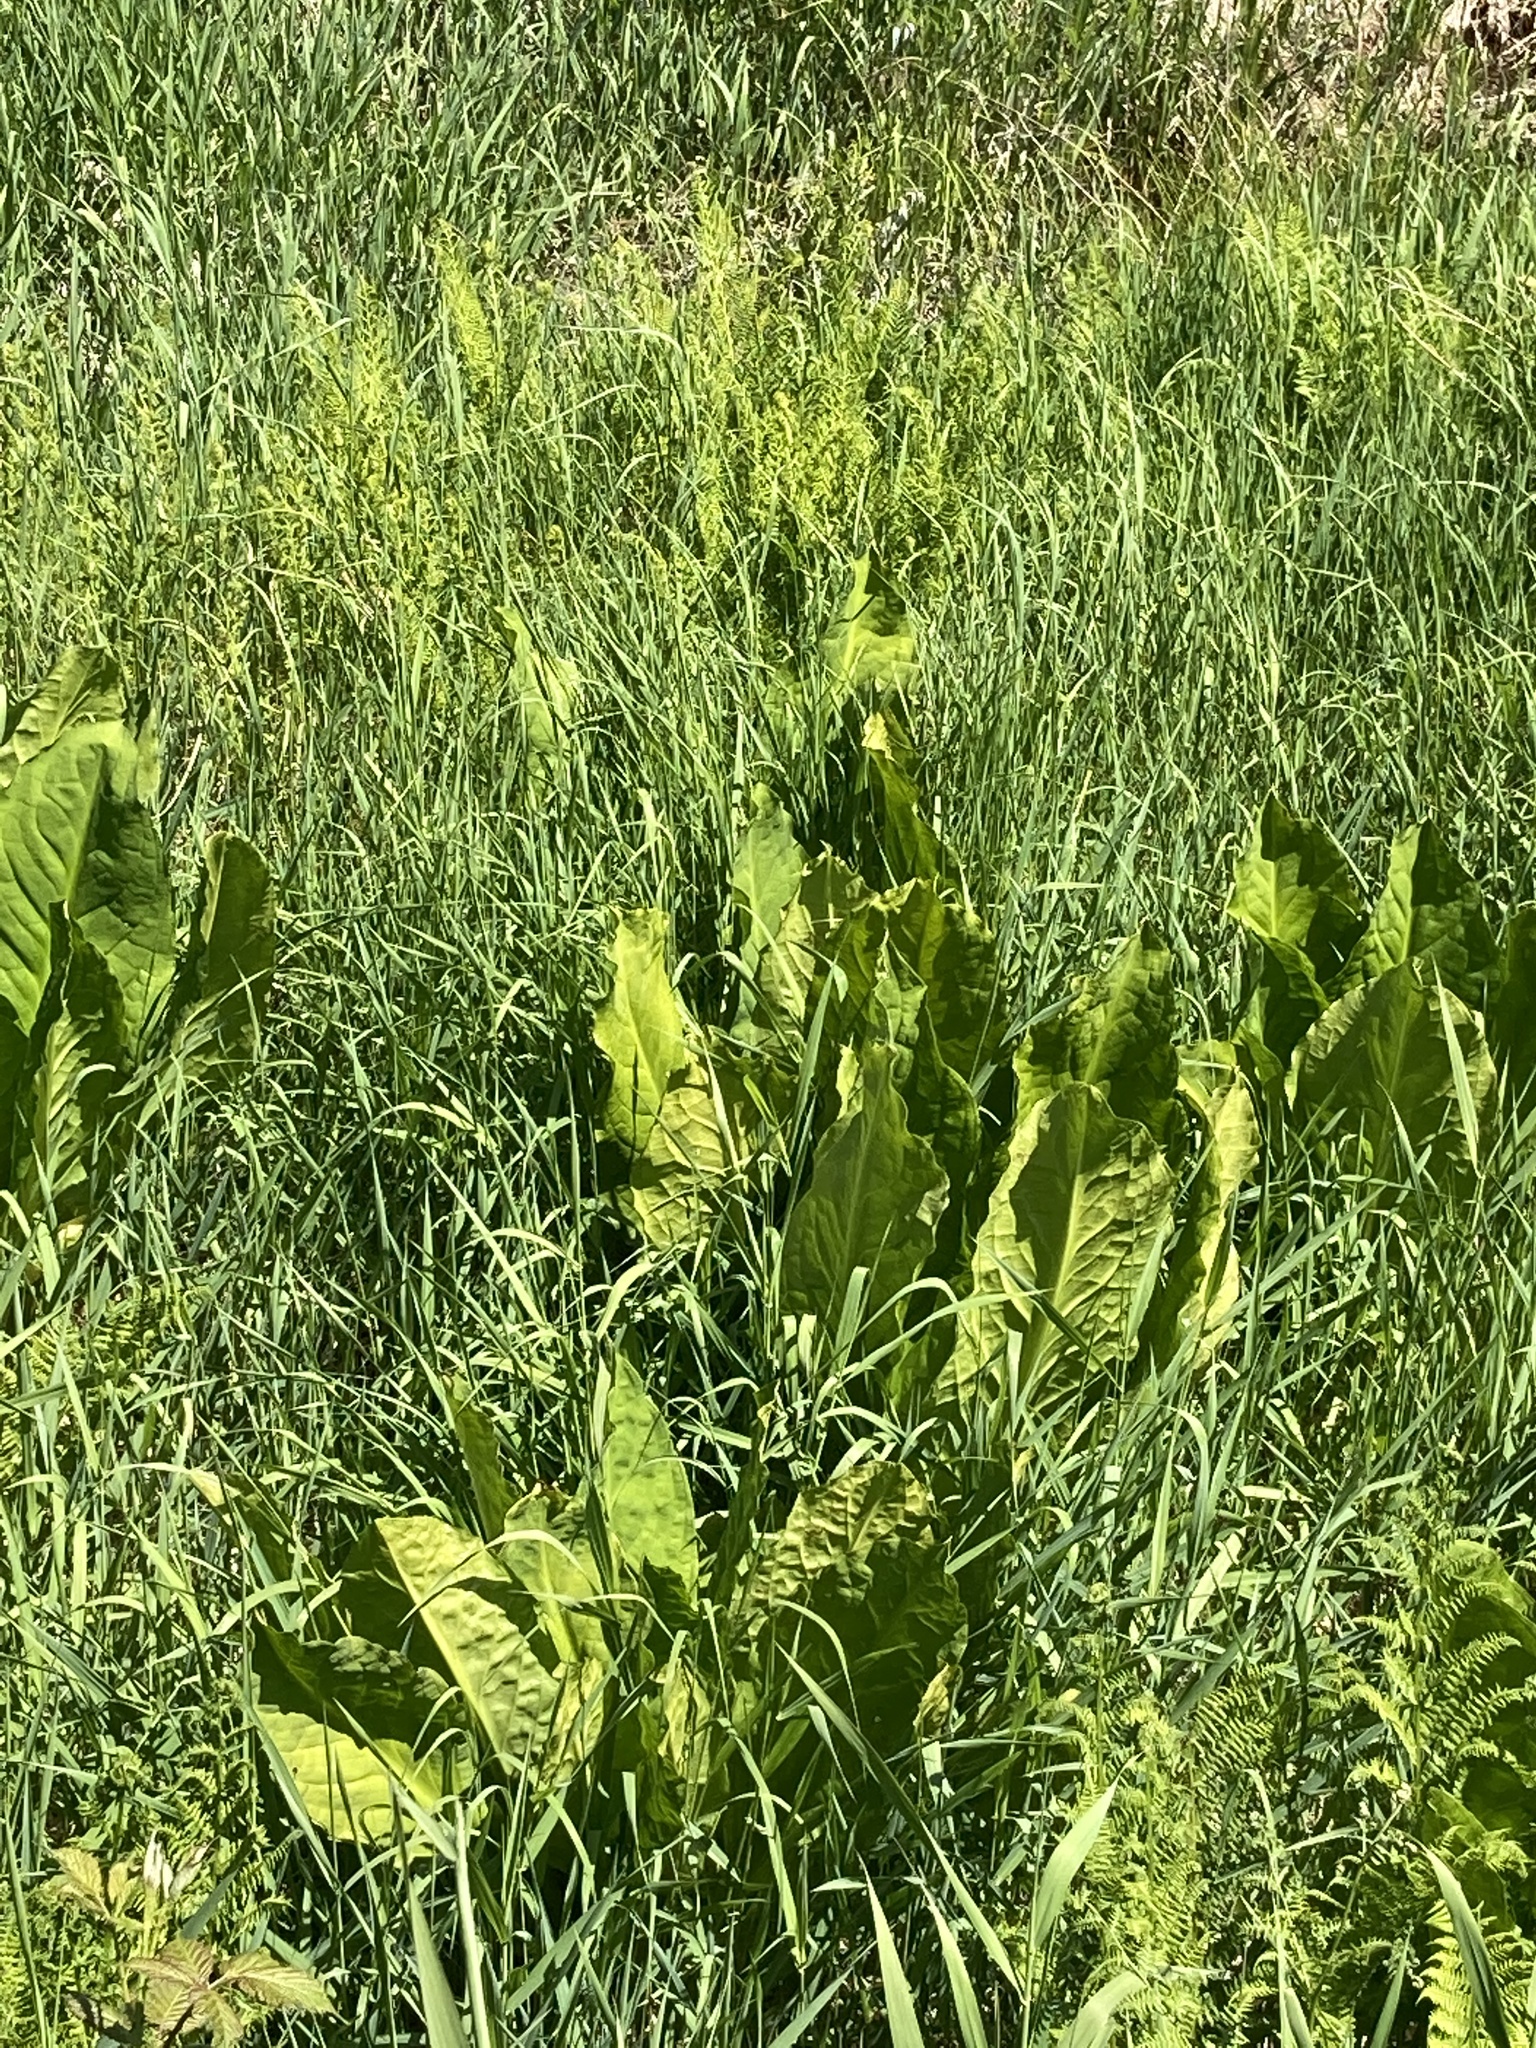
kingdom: Plantae
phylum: Tracheophyta
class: Liliopsida
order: Alismatales
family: Araceae
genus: Lysichiton
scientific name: Lysichiton americanus
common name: American skunk cabbage
